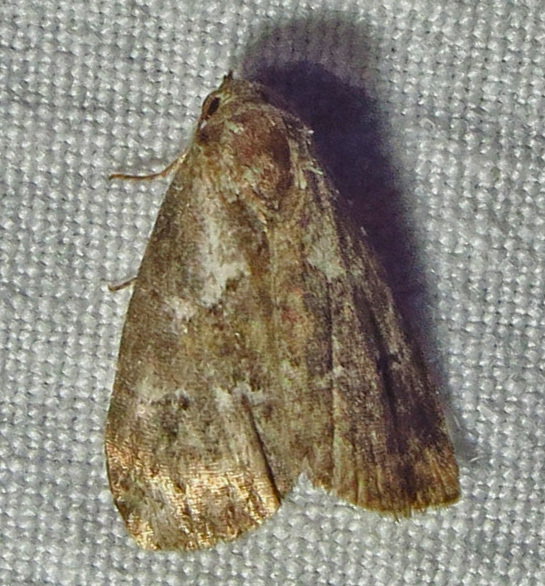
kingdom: Animalia
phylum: Arthropoda
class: Insecta
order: Lepidoptera
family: Erebidae
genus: Hyperstrotia
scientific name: Hyperstrotia nana
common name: White-lined graylet
